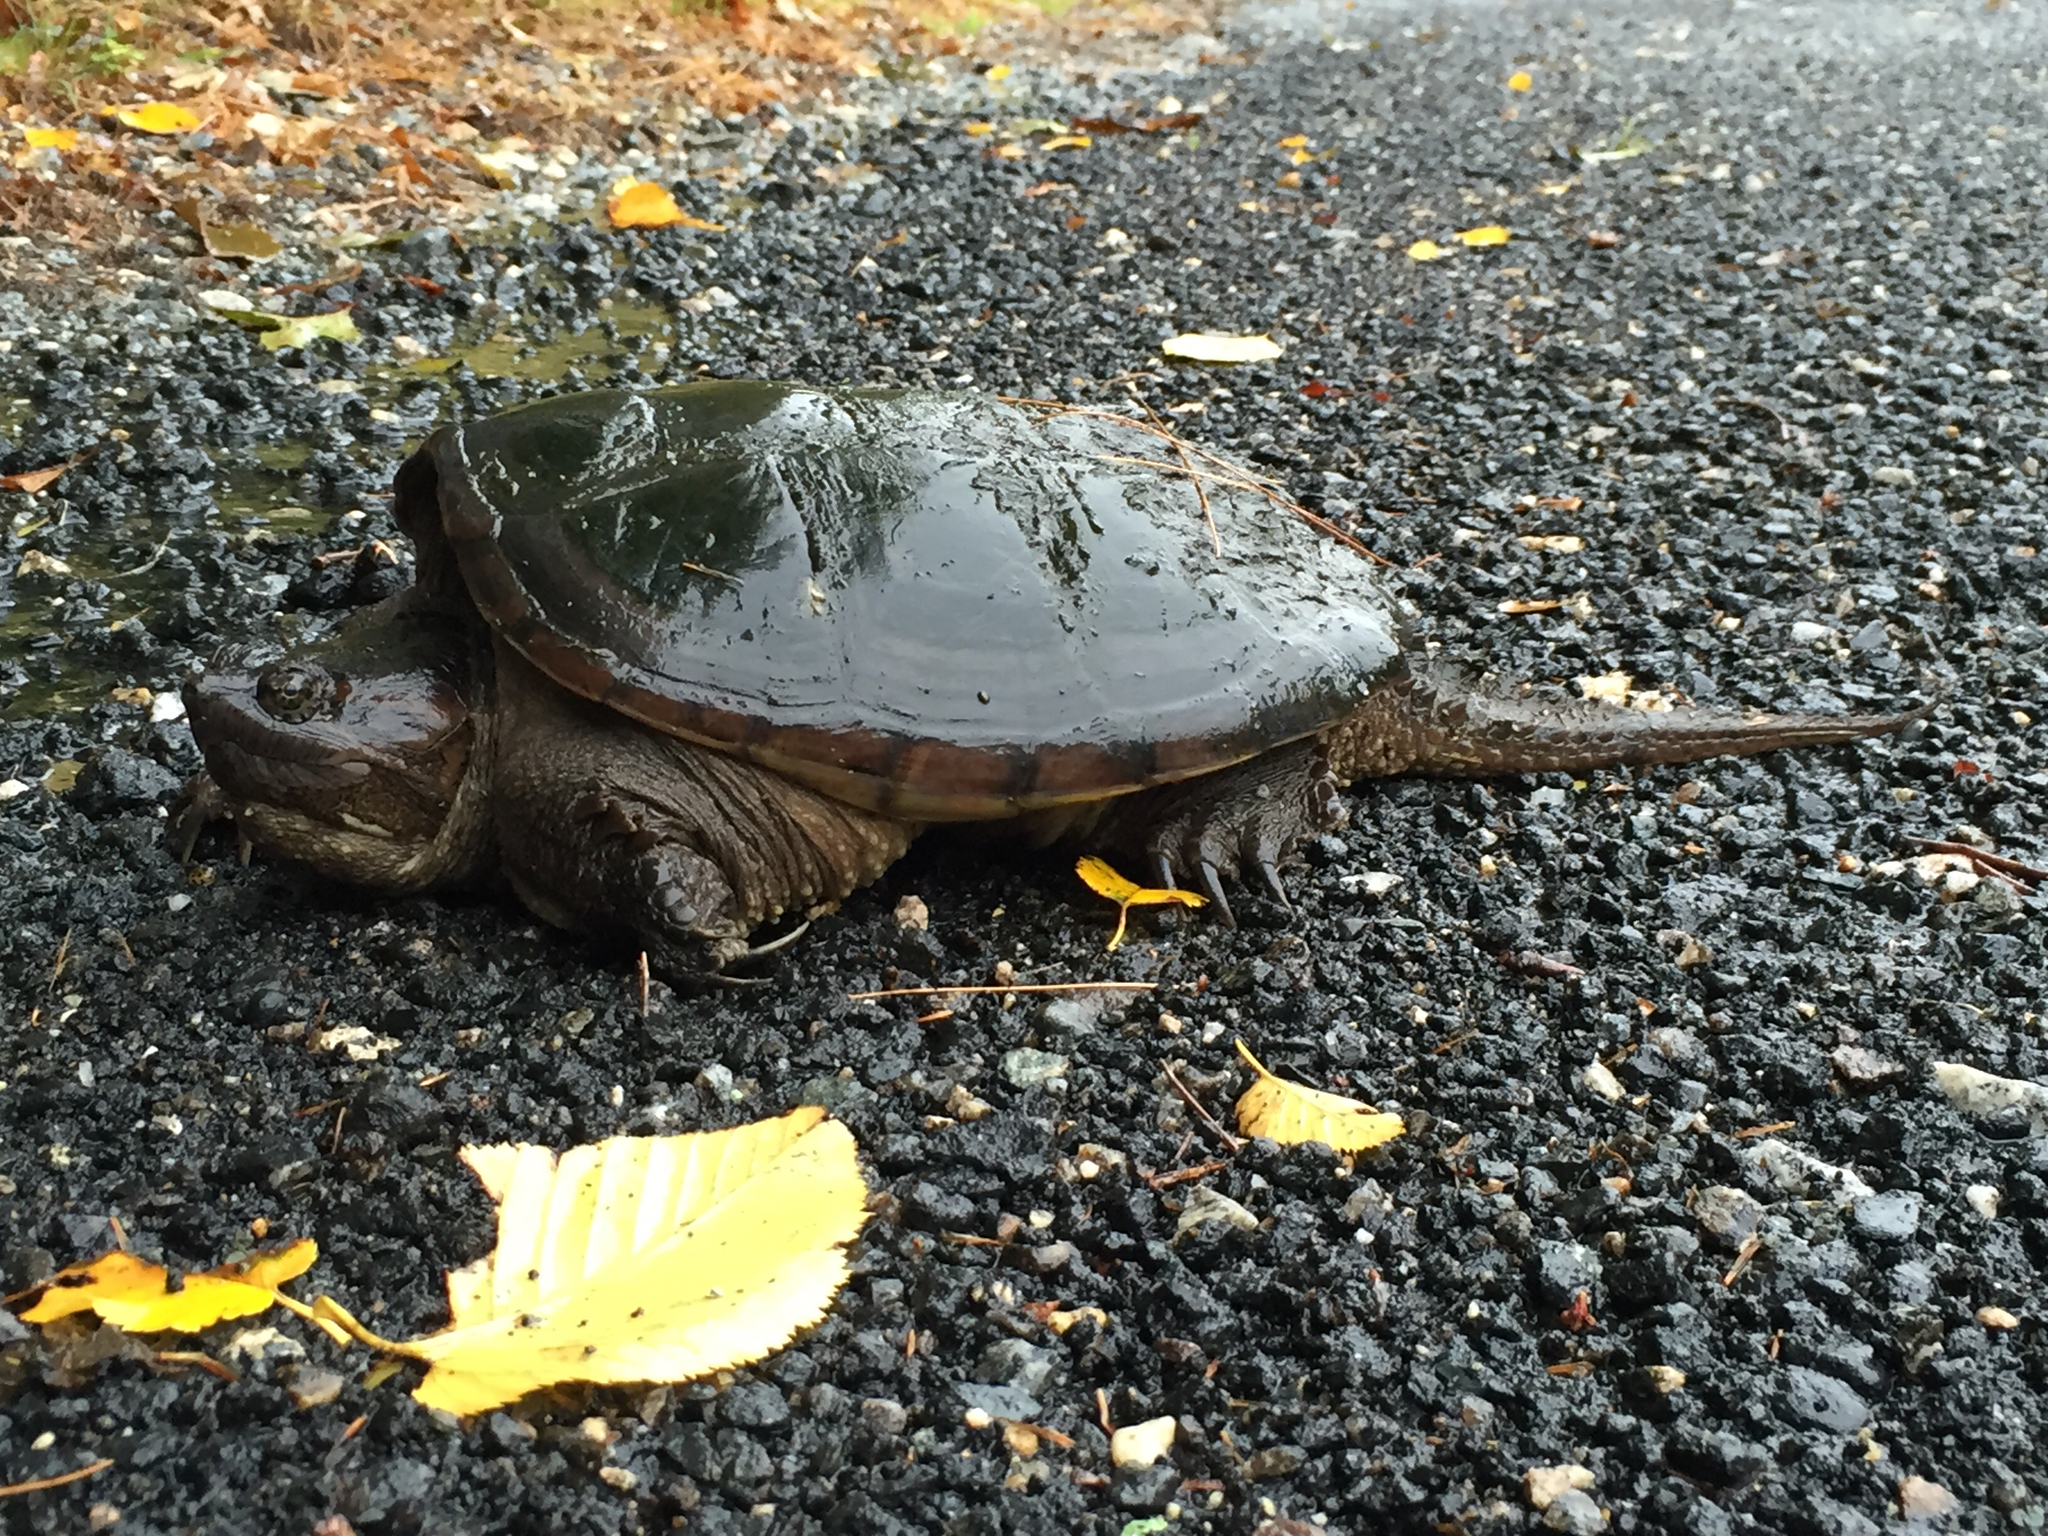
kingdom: Animalia
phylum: Chordata
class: Testudines
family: Chelydridae
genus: Chelydra
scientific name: Chelydra serpentina
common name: Common snapping turtle
